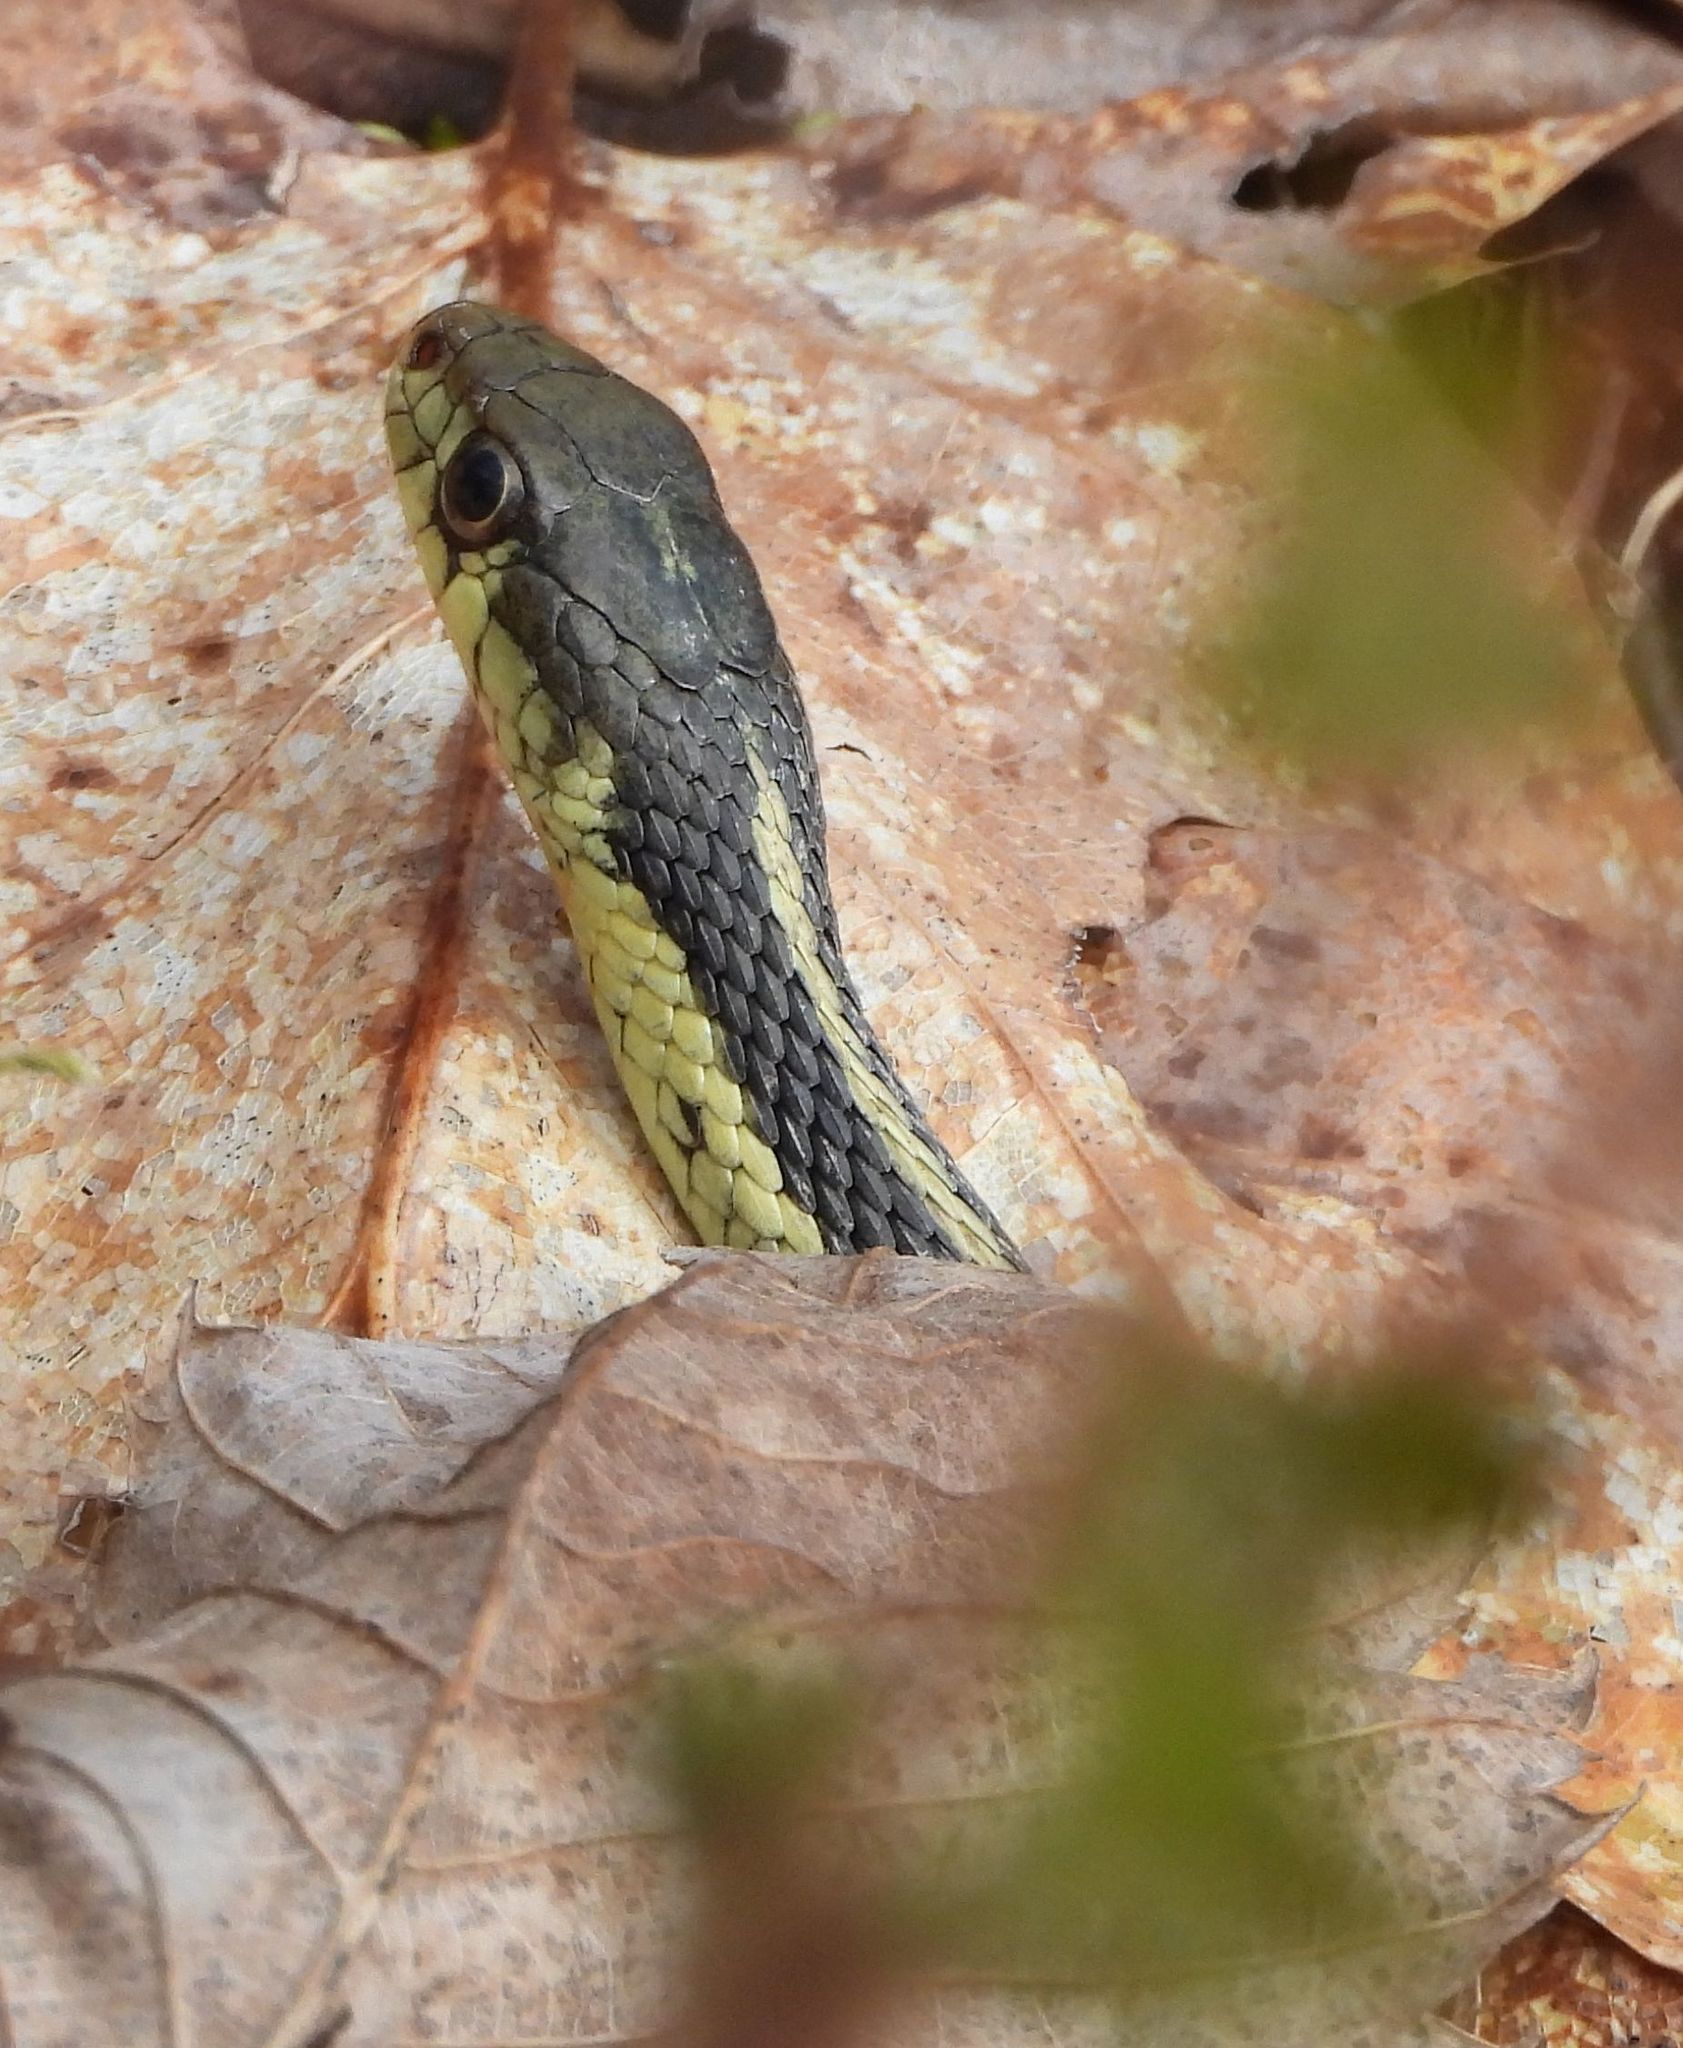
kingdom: Animalia
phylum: Chordata
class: Squamata
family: Colubridae
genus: Thamnophis
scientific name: Thamnophis sirtalis
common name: Common garter snake
